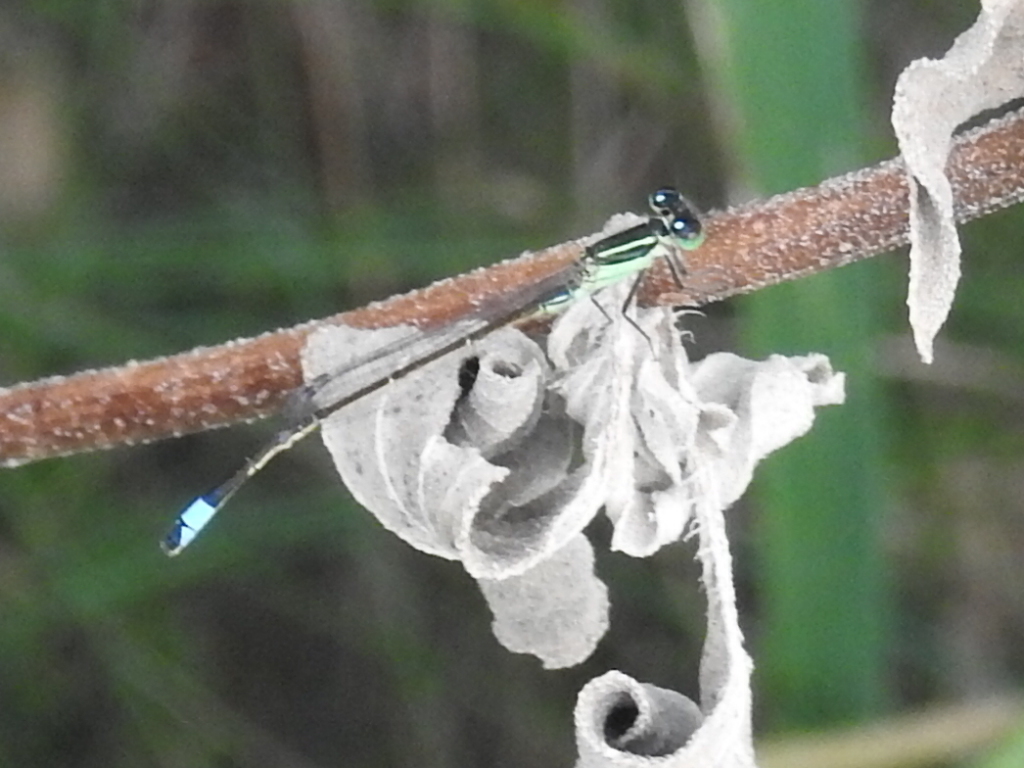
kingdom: Animalia
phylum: Arthropoda
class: Insecta
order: Odonata
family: Coenagrionidae
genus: Ischnura
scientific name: Ischnura ramburii
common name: Rambur's forktail
